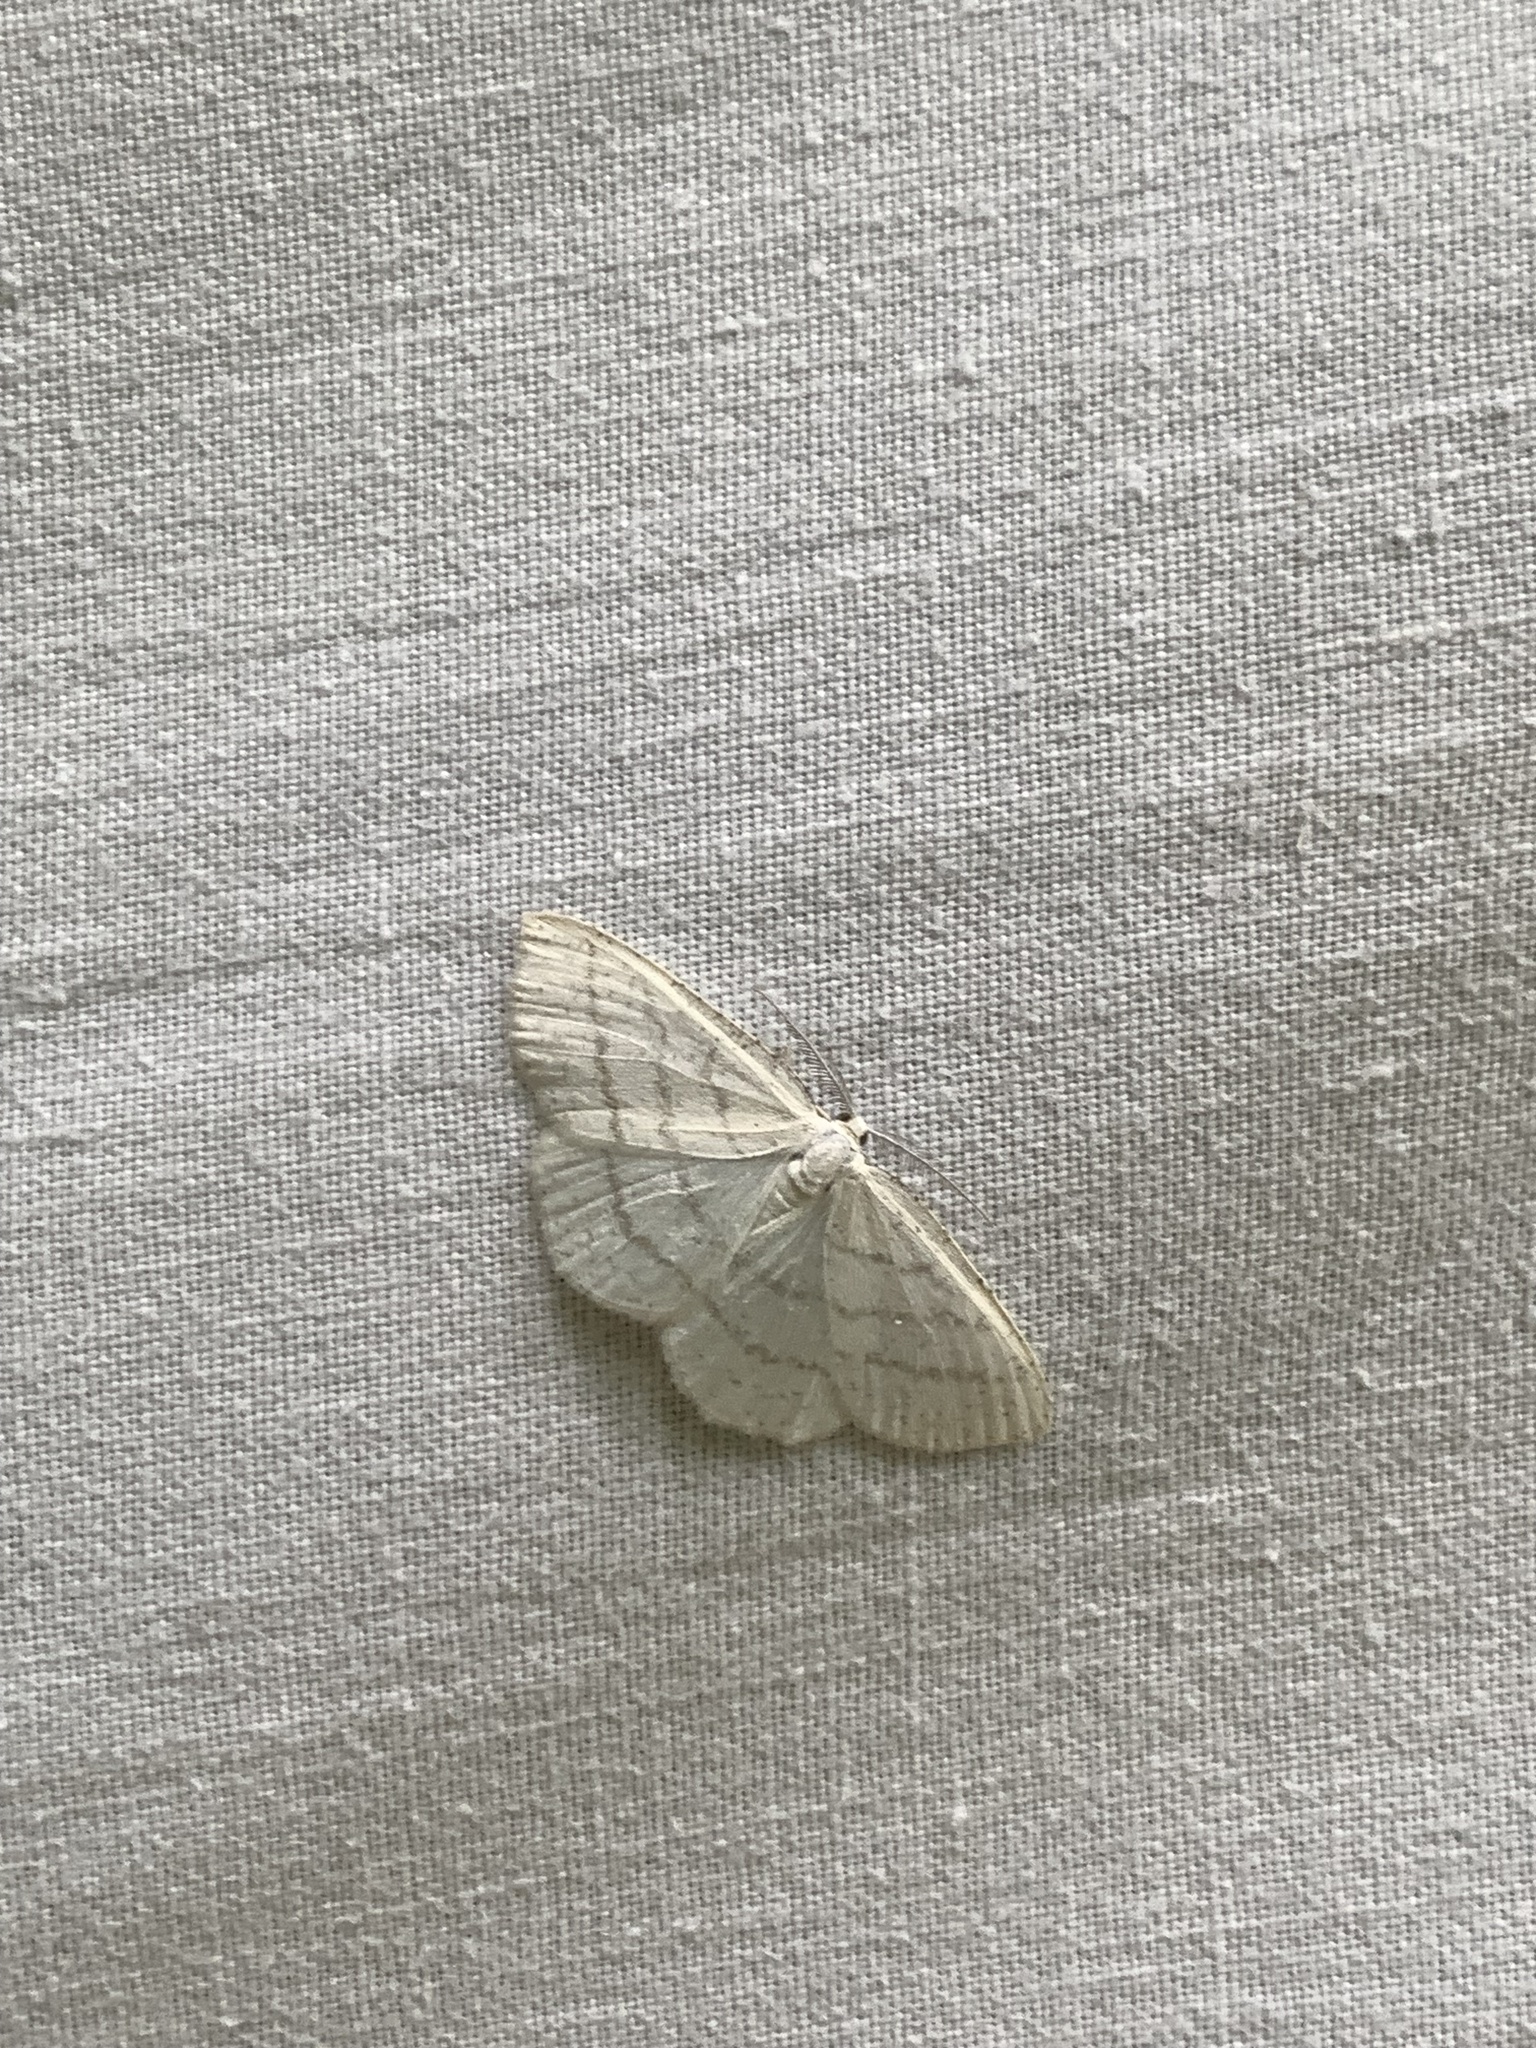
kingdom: Animalia
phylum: Arthropoda
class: Insecta
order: Lepidoptera
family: Geometridae
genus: Cabera
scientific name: Cabera pusaria
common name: Common white wave
